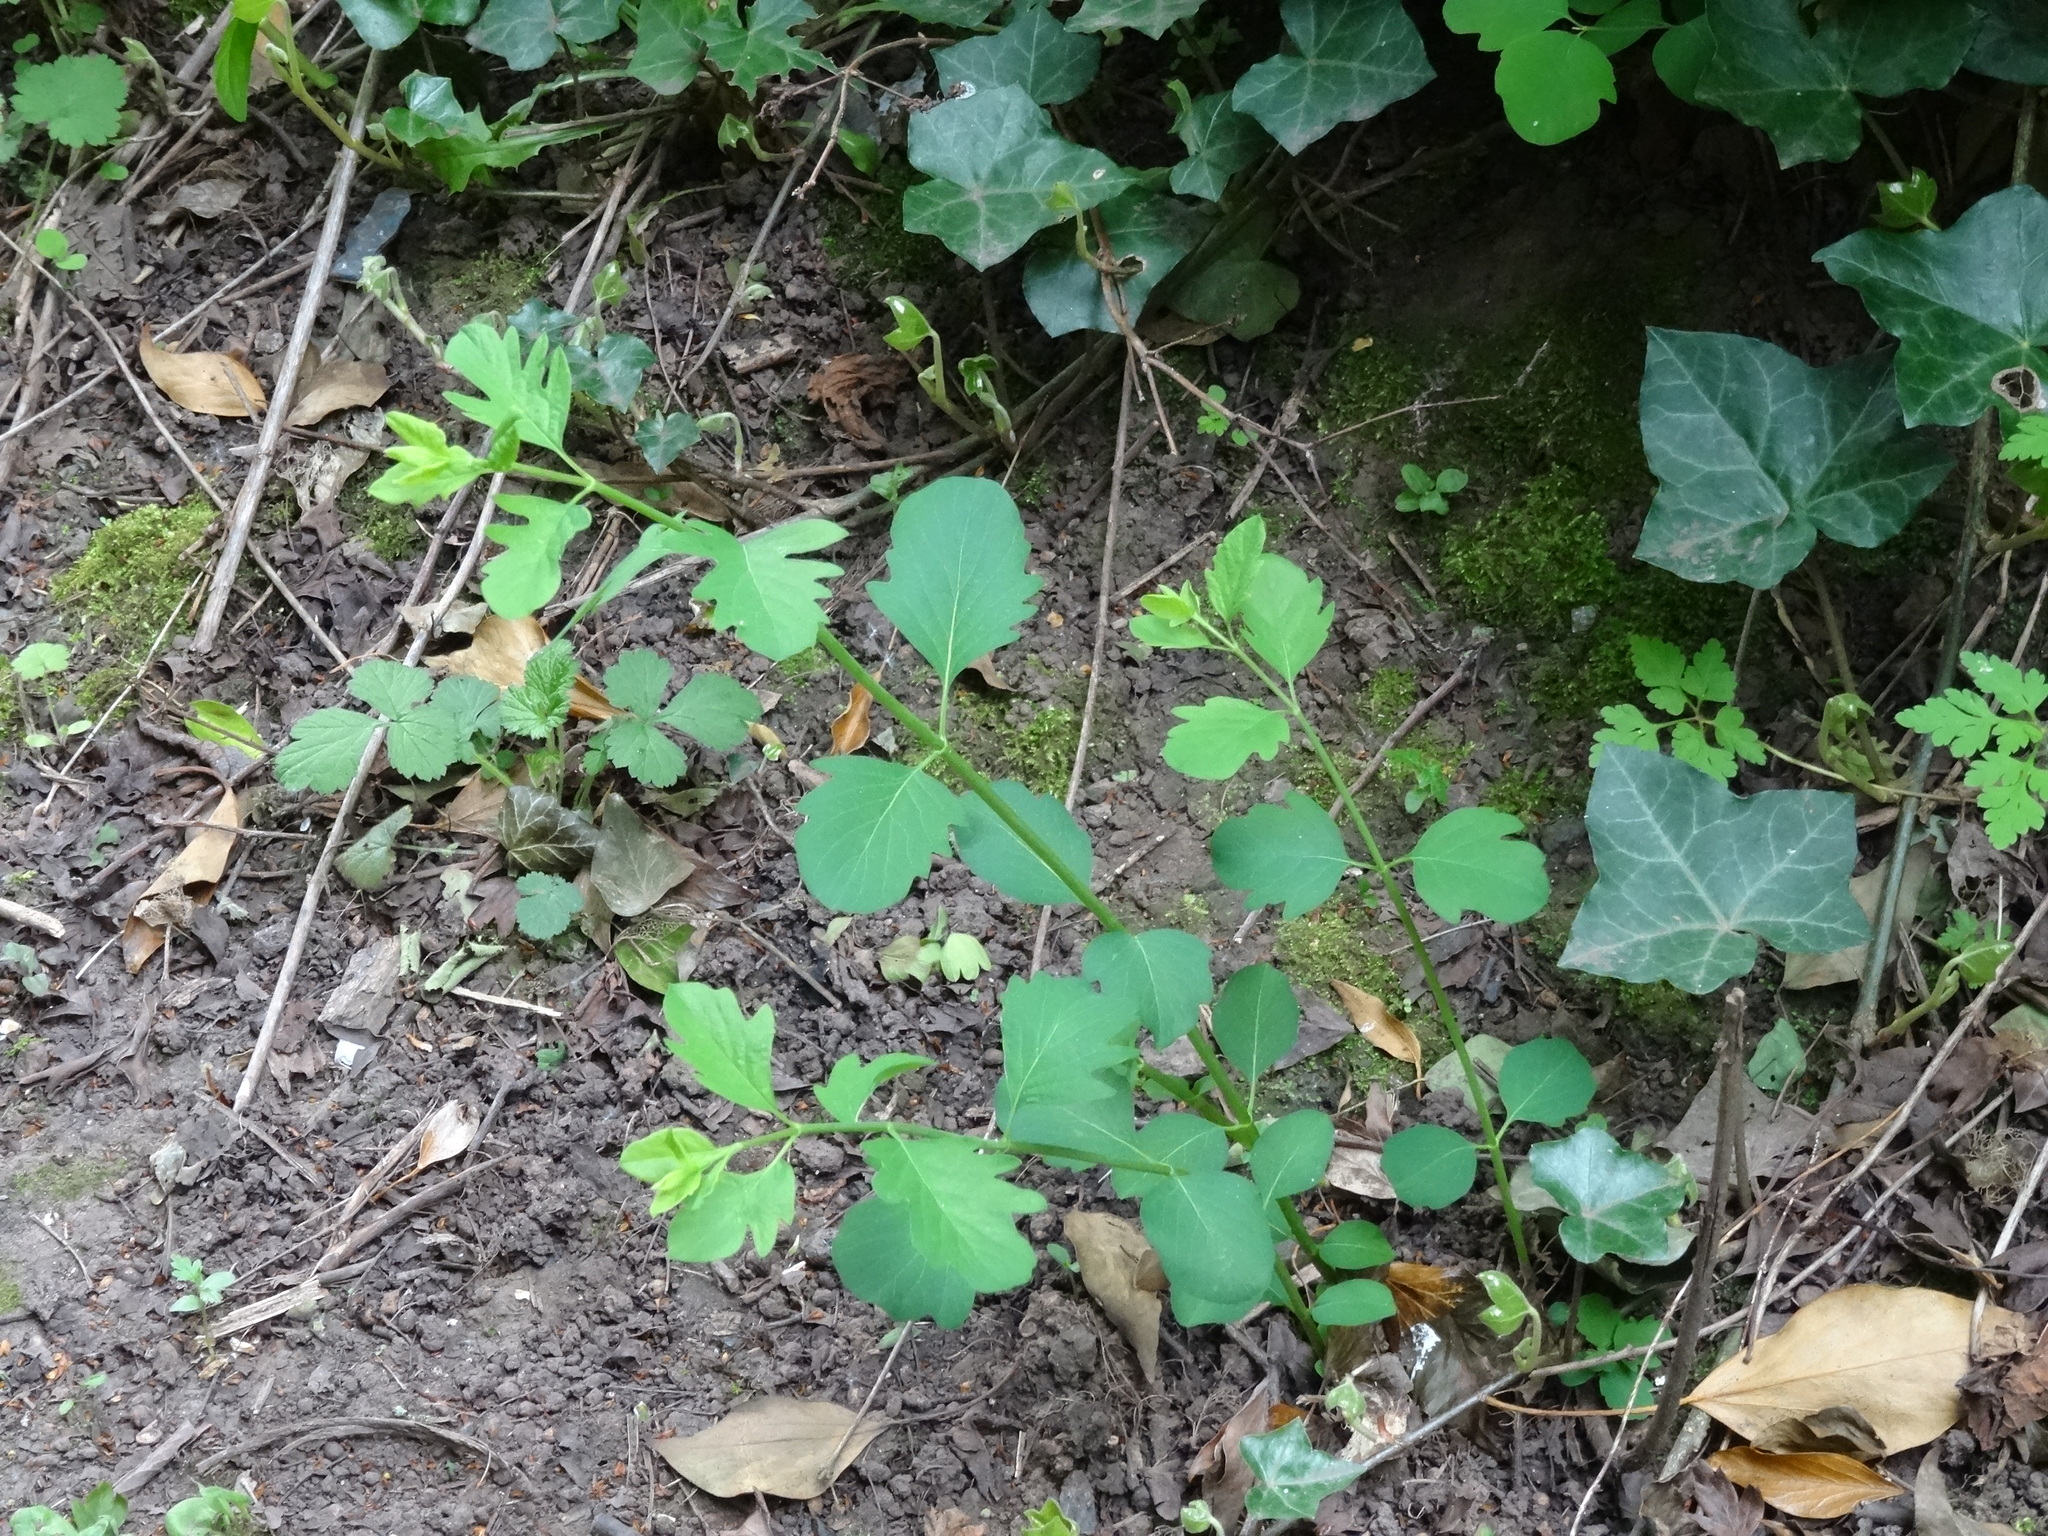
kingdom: Plantae
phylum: Tracheophyta
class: Magnoliopsida
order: Dipsacales
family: Caprifoliaceae
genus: Symphoricarpos
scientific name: Symphoricarpos albus
